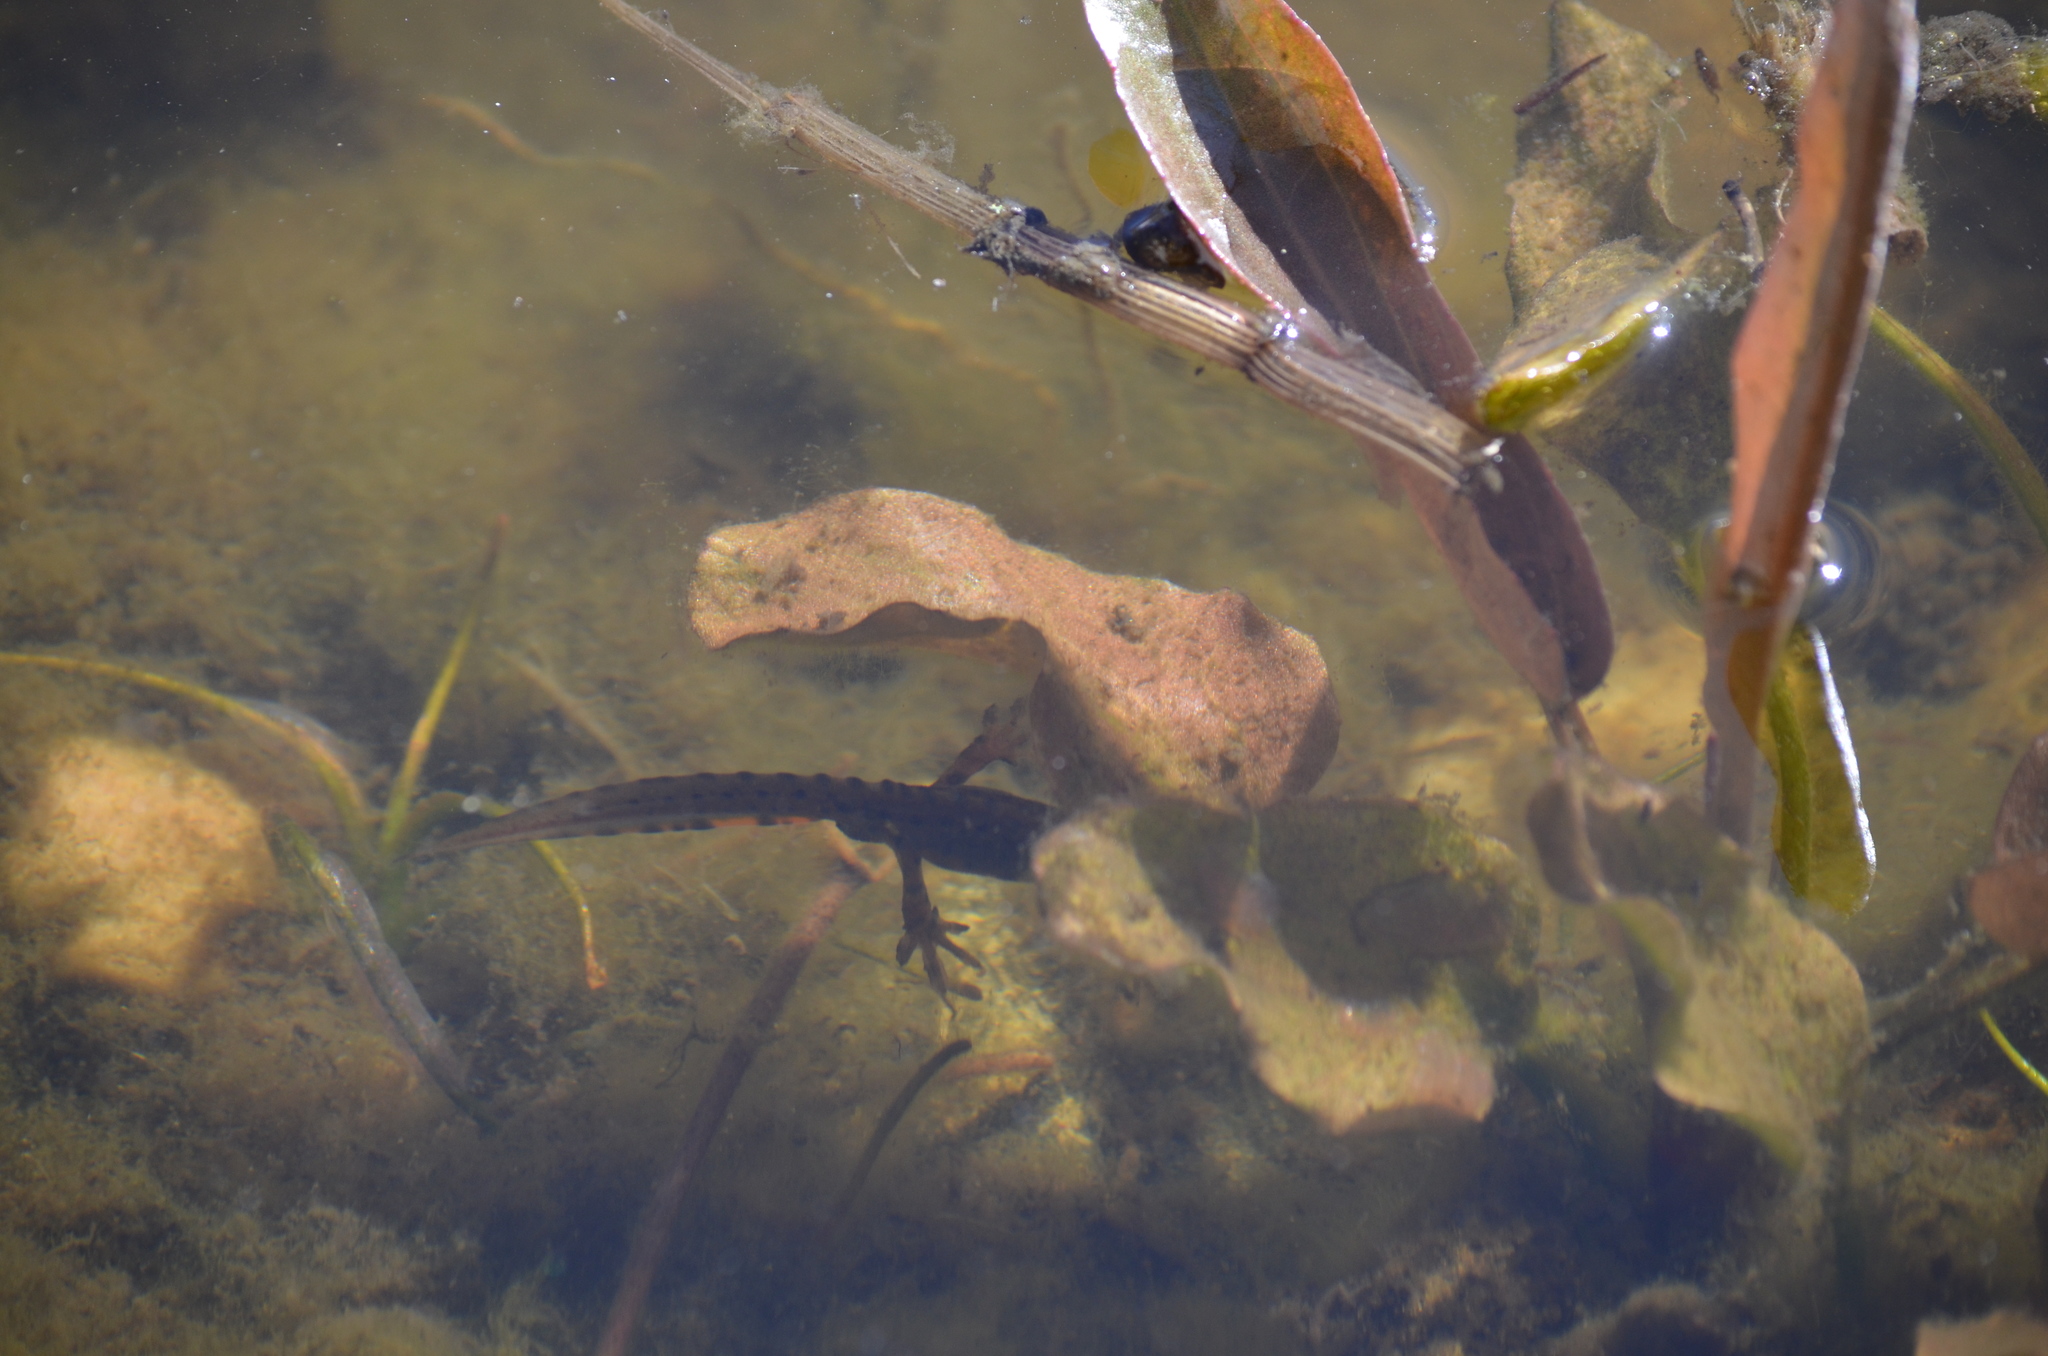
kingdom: Animalia
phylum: Chordata
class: Amphibia
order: Caudata
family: Salamandridae
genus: Lissotriton
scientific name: Lissotriton vulgaris
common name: Smooth newt
